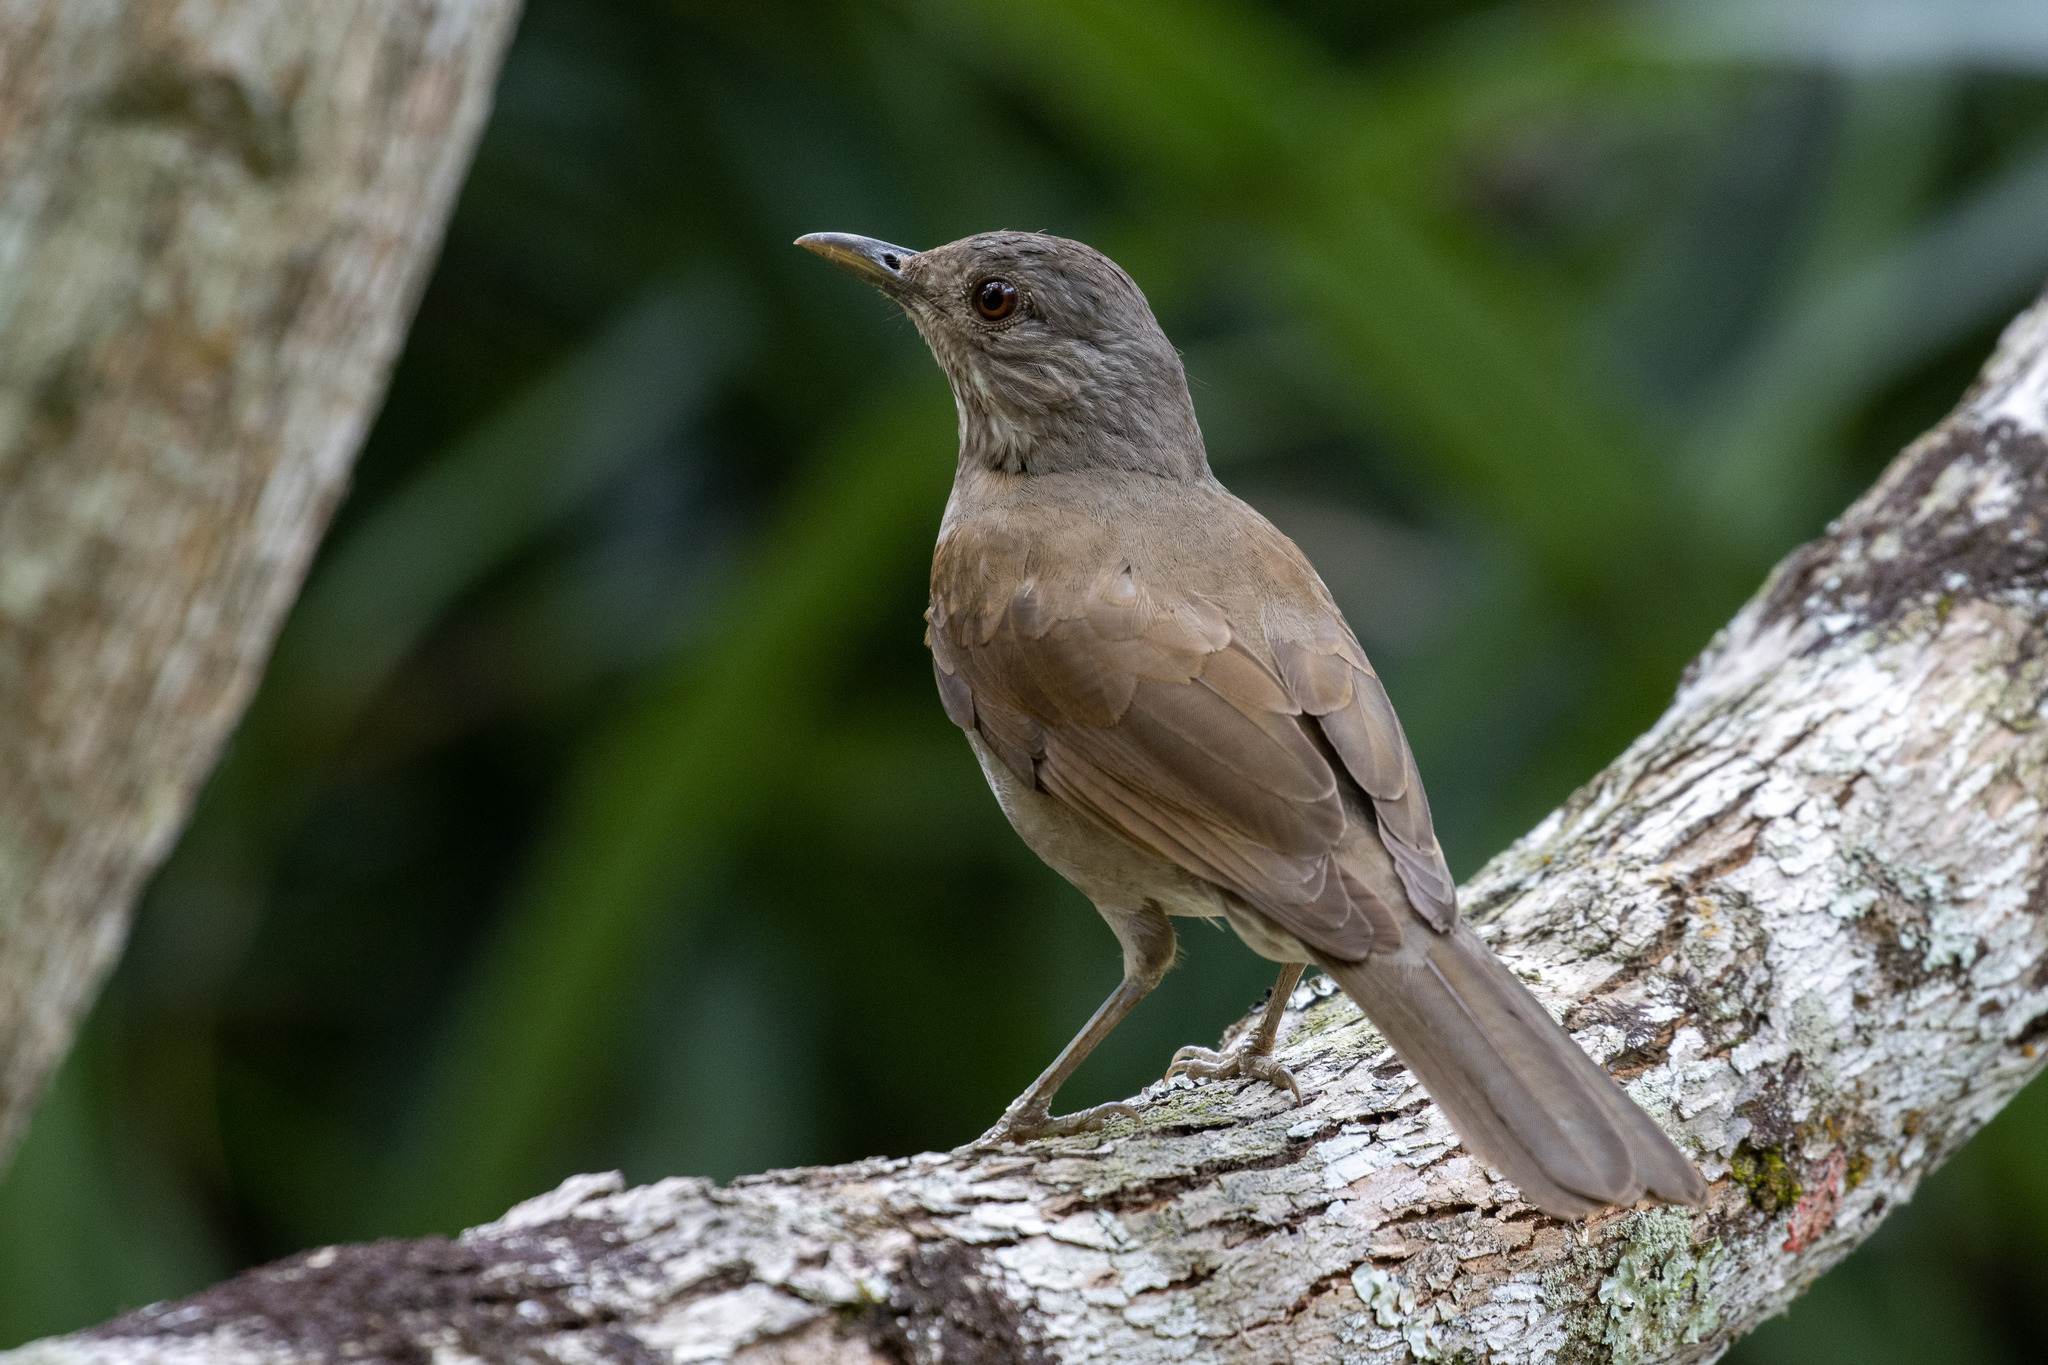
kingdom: Animalia
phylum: Chordata
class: Aves
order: Passeriformes
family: Turdidae
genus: Turdus
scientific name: Turdus leucomelas
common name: Pale-breasted thrush
